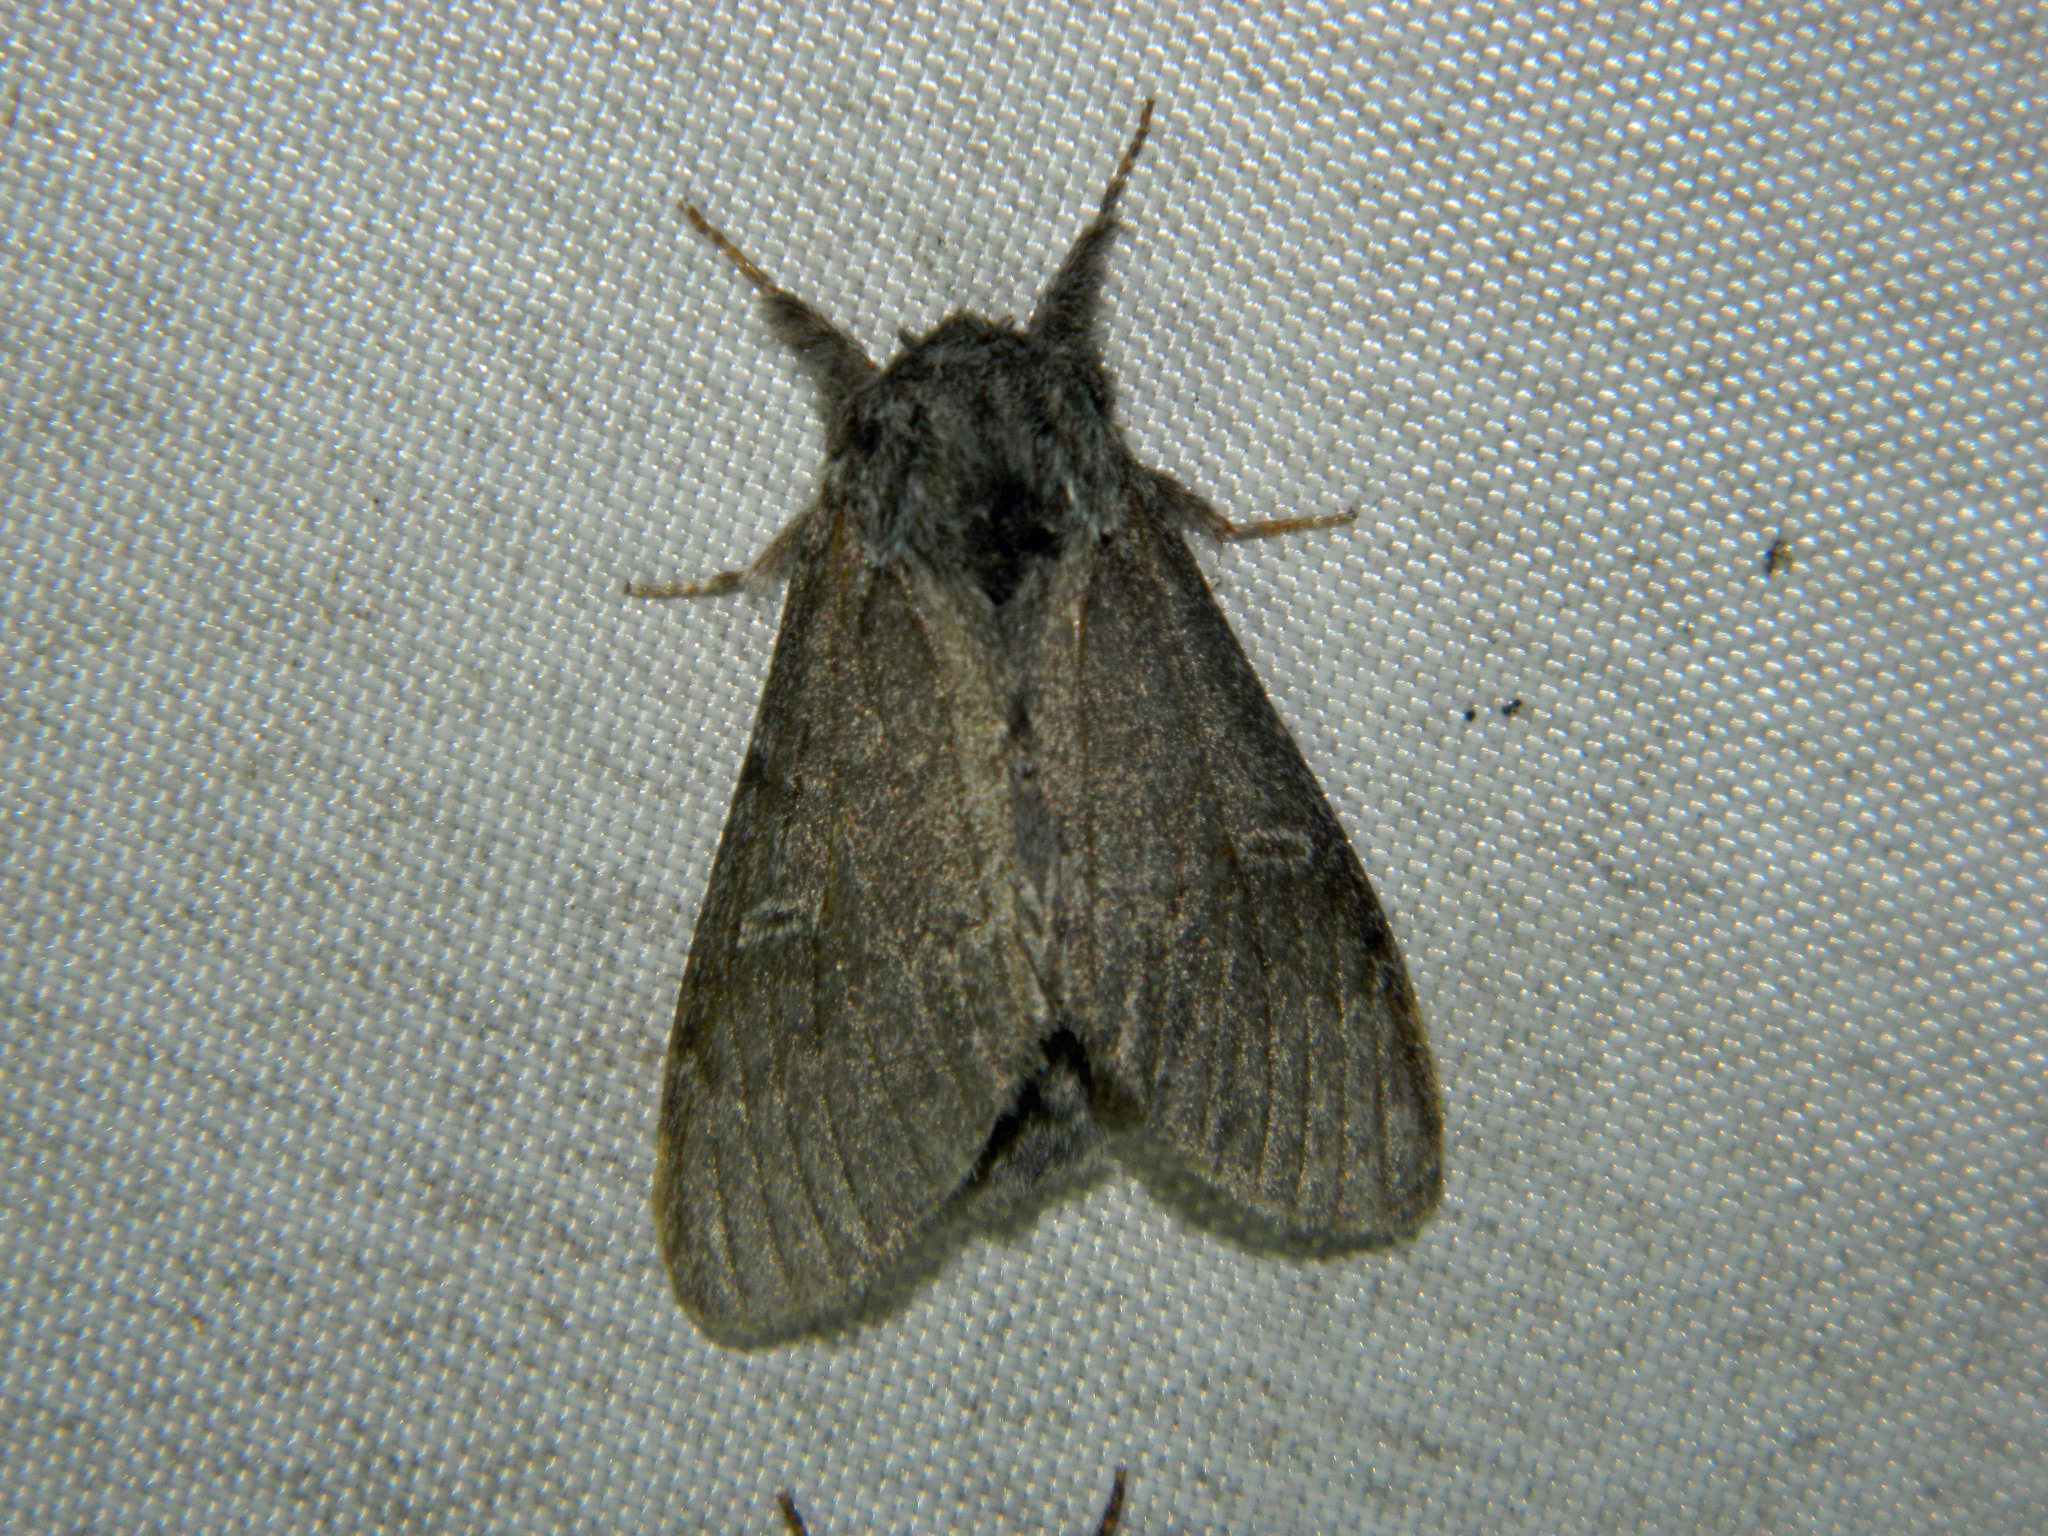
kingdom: Animalia
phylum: Arthropoda
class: Insecta
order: Lepidoptera
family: Notodontidae
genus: Notodonta
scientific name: Notodonta torva
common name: Large dark prominent
